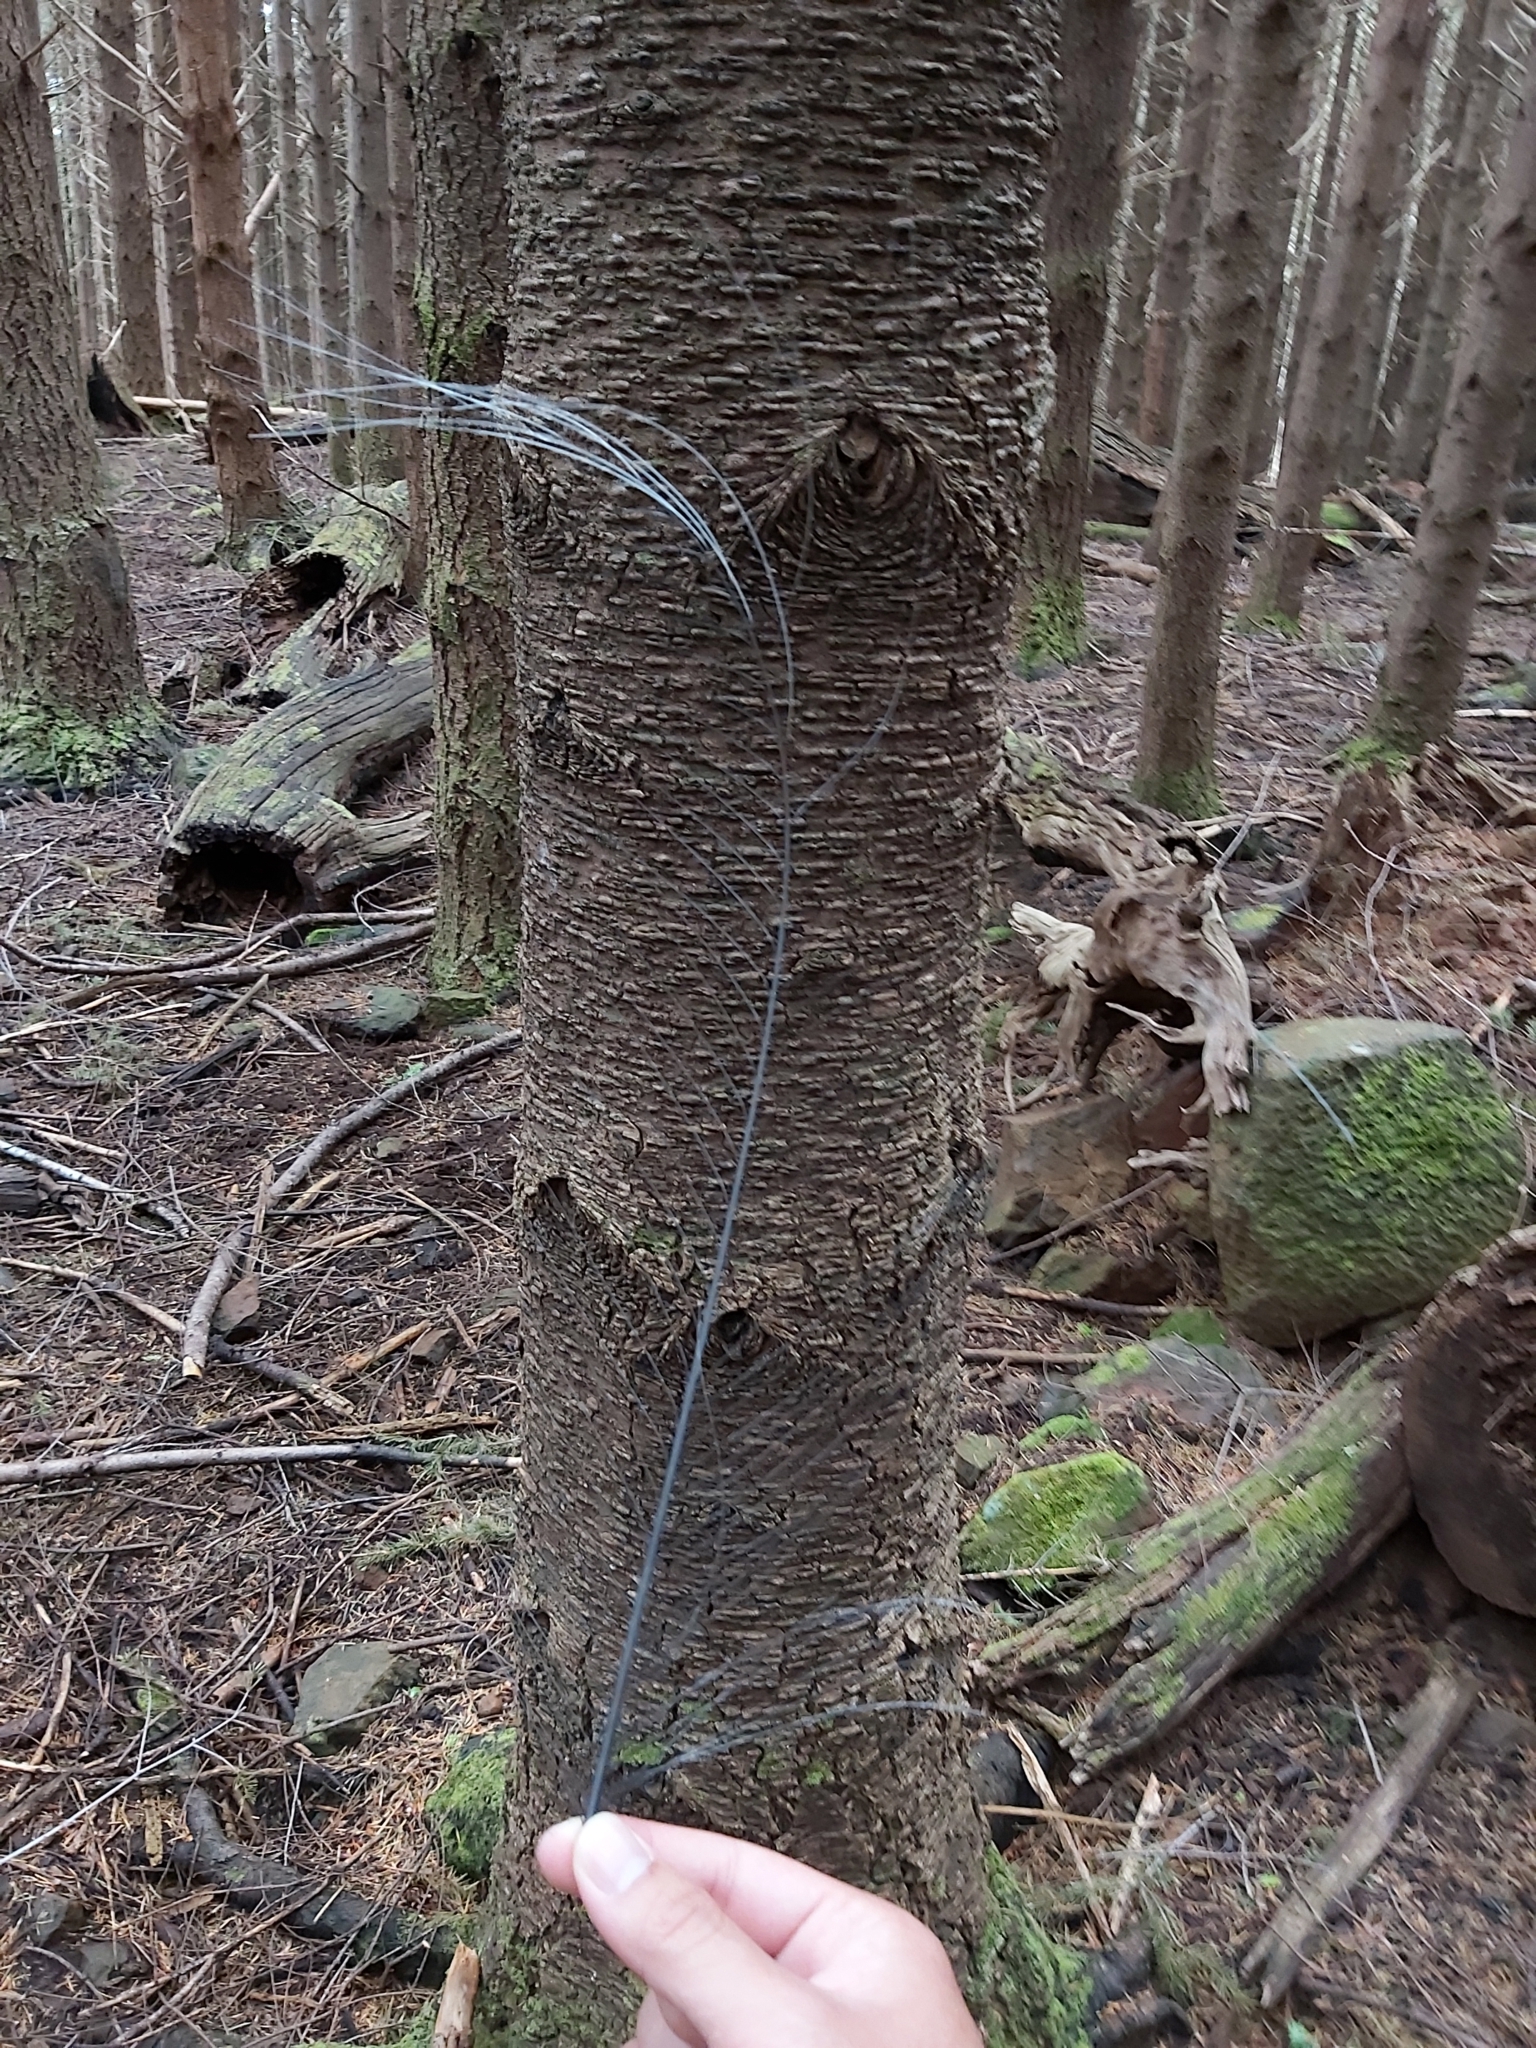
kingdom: Animalia
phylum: Chordata
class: Aves
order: Passeriformes
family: Menuridae
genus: Menura
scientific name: Menura novaehollandiae
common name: Superb lyrebird
